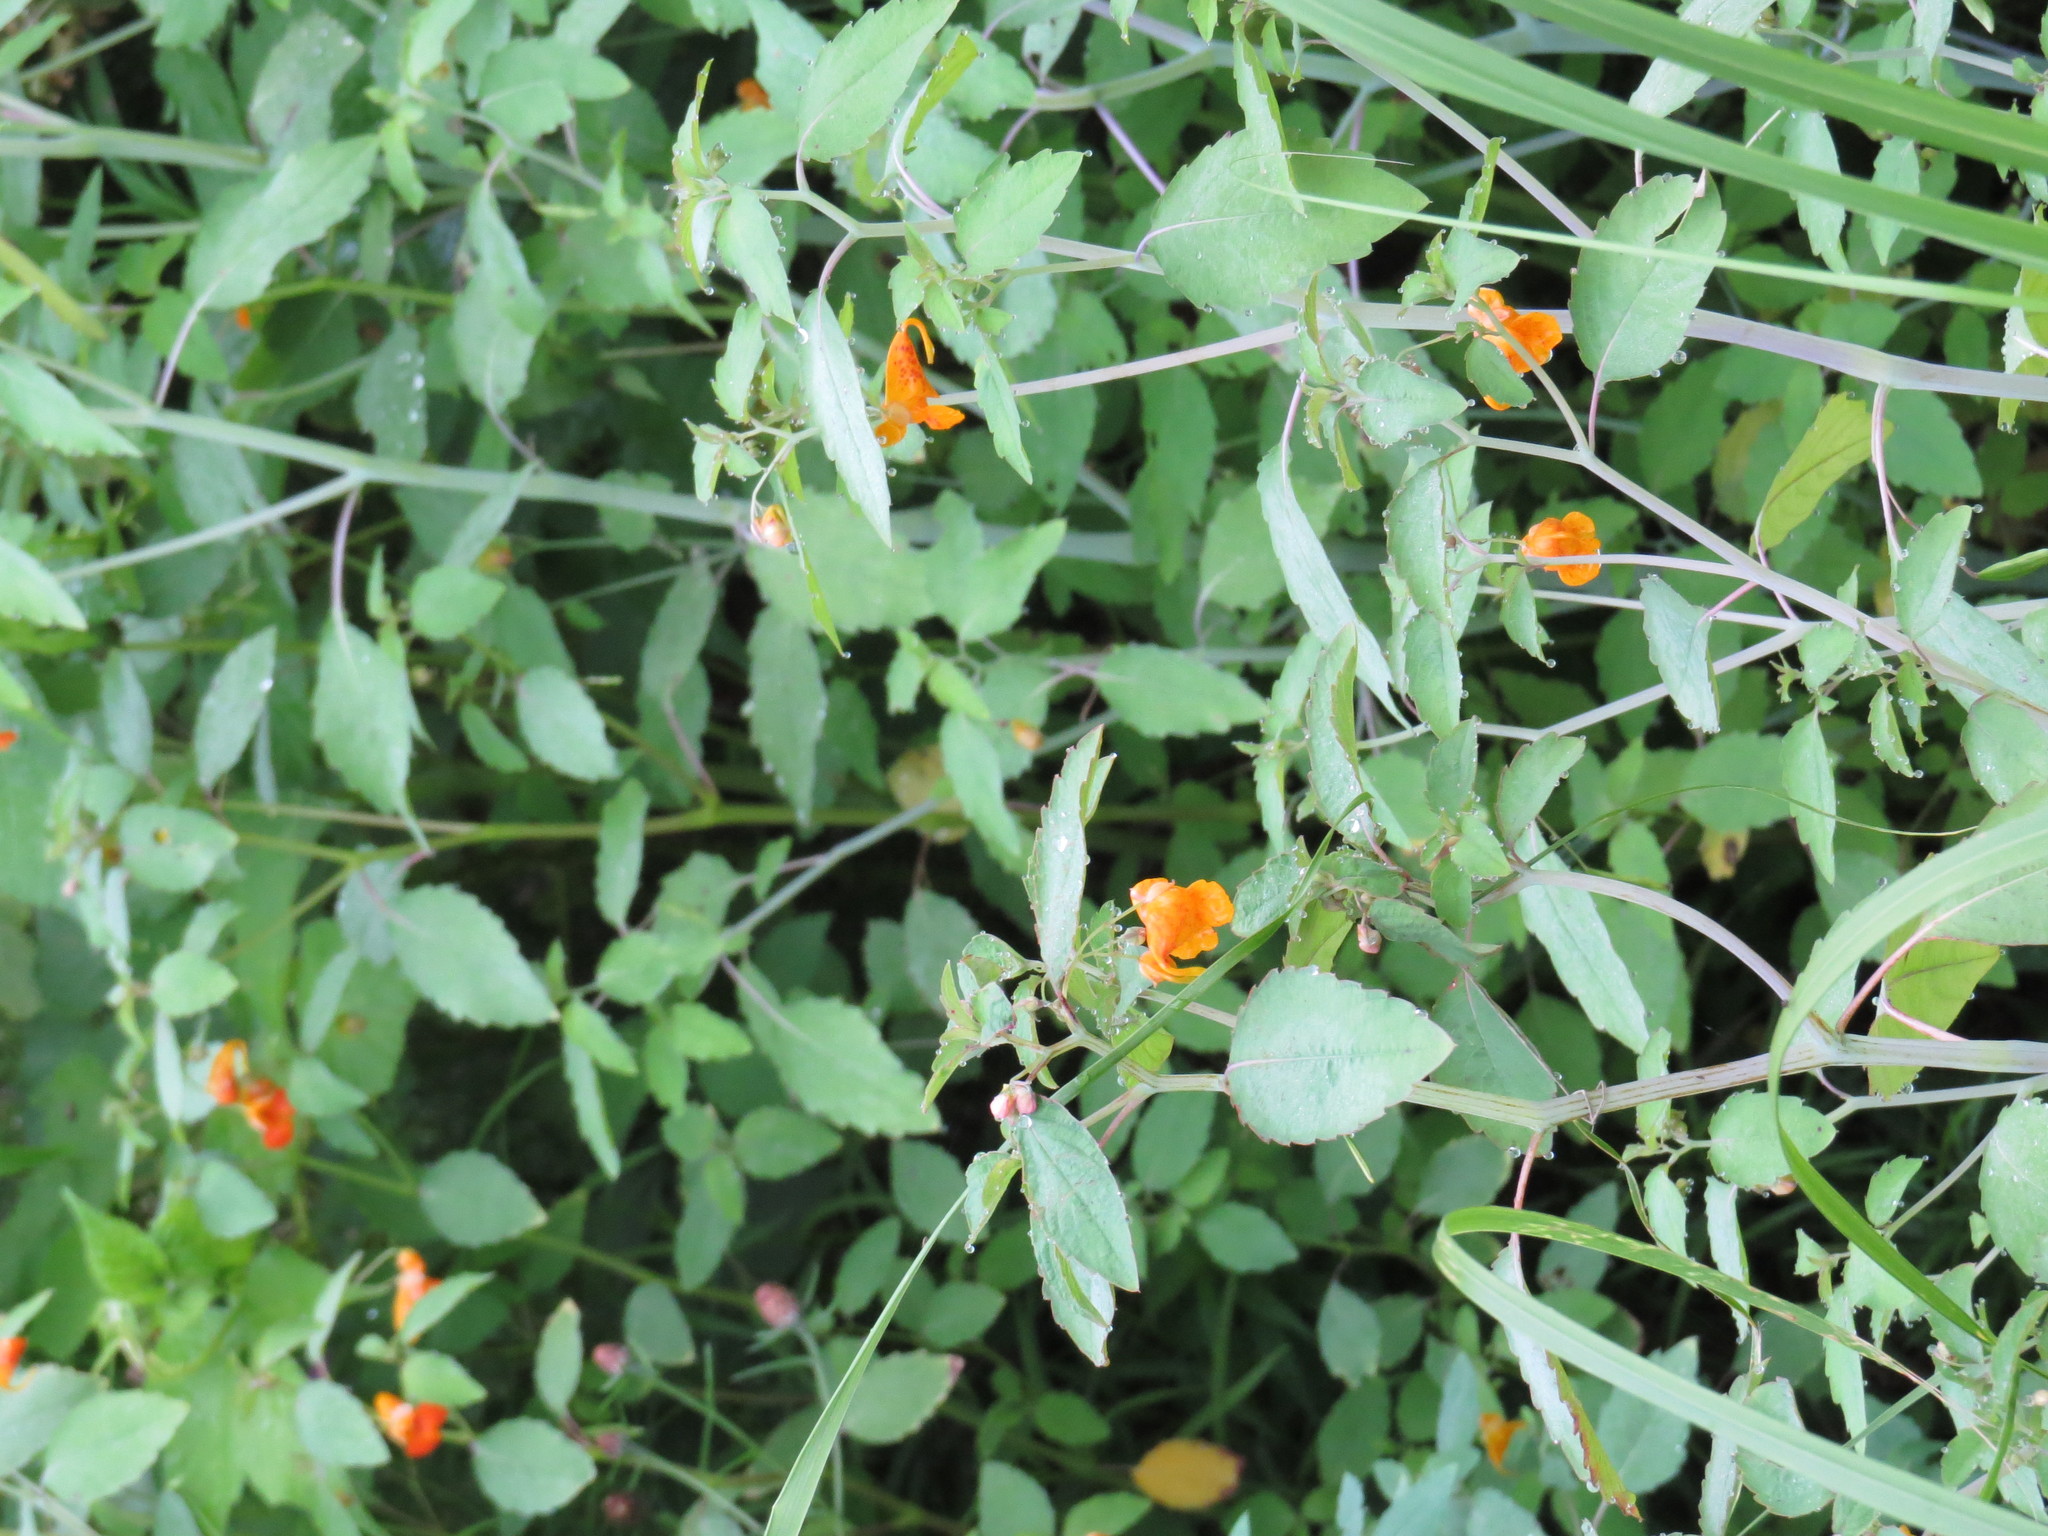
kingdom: Plantae
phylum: Tracheophyta
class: Magnoliopsida
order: Ericales
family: Balsaminaceae
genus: Impatiens
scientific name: Impatiens capensis
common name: Orange balsam
